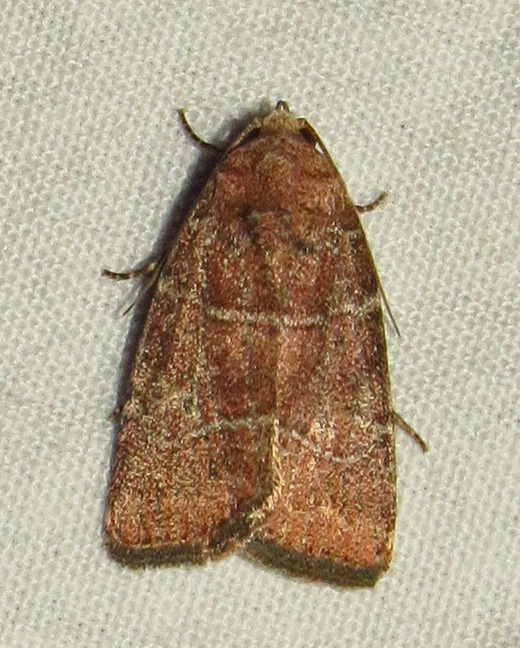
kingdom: Animalia
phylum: Arthropoda
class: Insecta
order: Lepidoptera
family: Noctuidae
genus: Elaphria
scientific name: Elaphria grata
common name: Grateful midget moth
